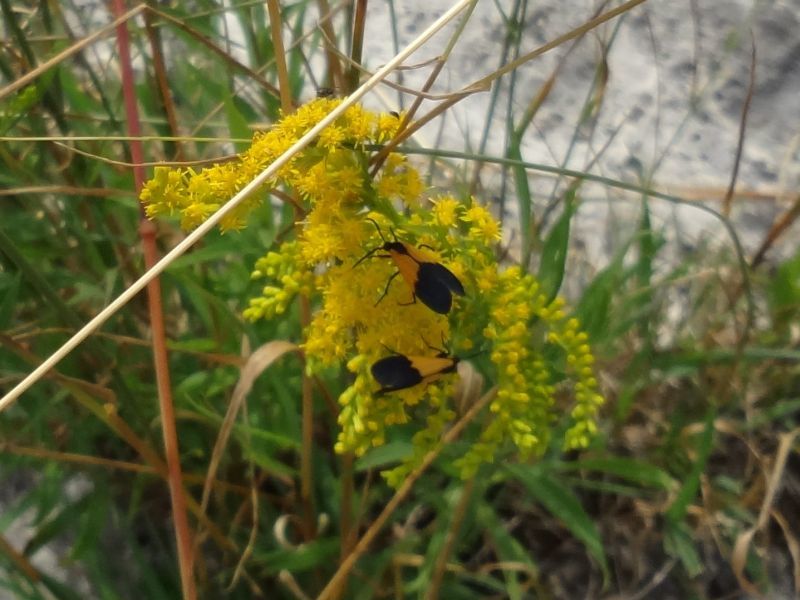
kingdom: Animalia
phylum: Arthropoda
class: Insecta
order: Lepidoptera
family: Erebidae
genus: Lycomorpha
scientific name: Lycomorpha pholus
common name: Black-and-yellow lichen moth
